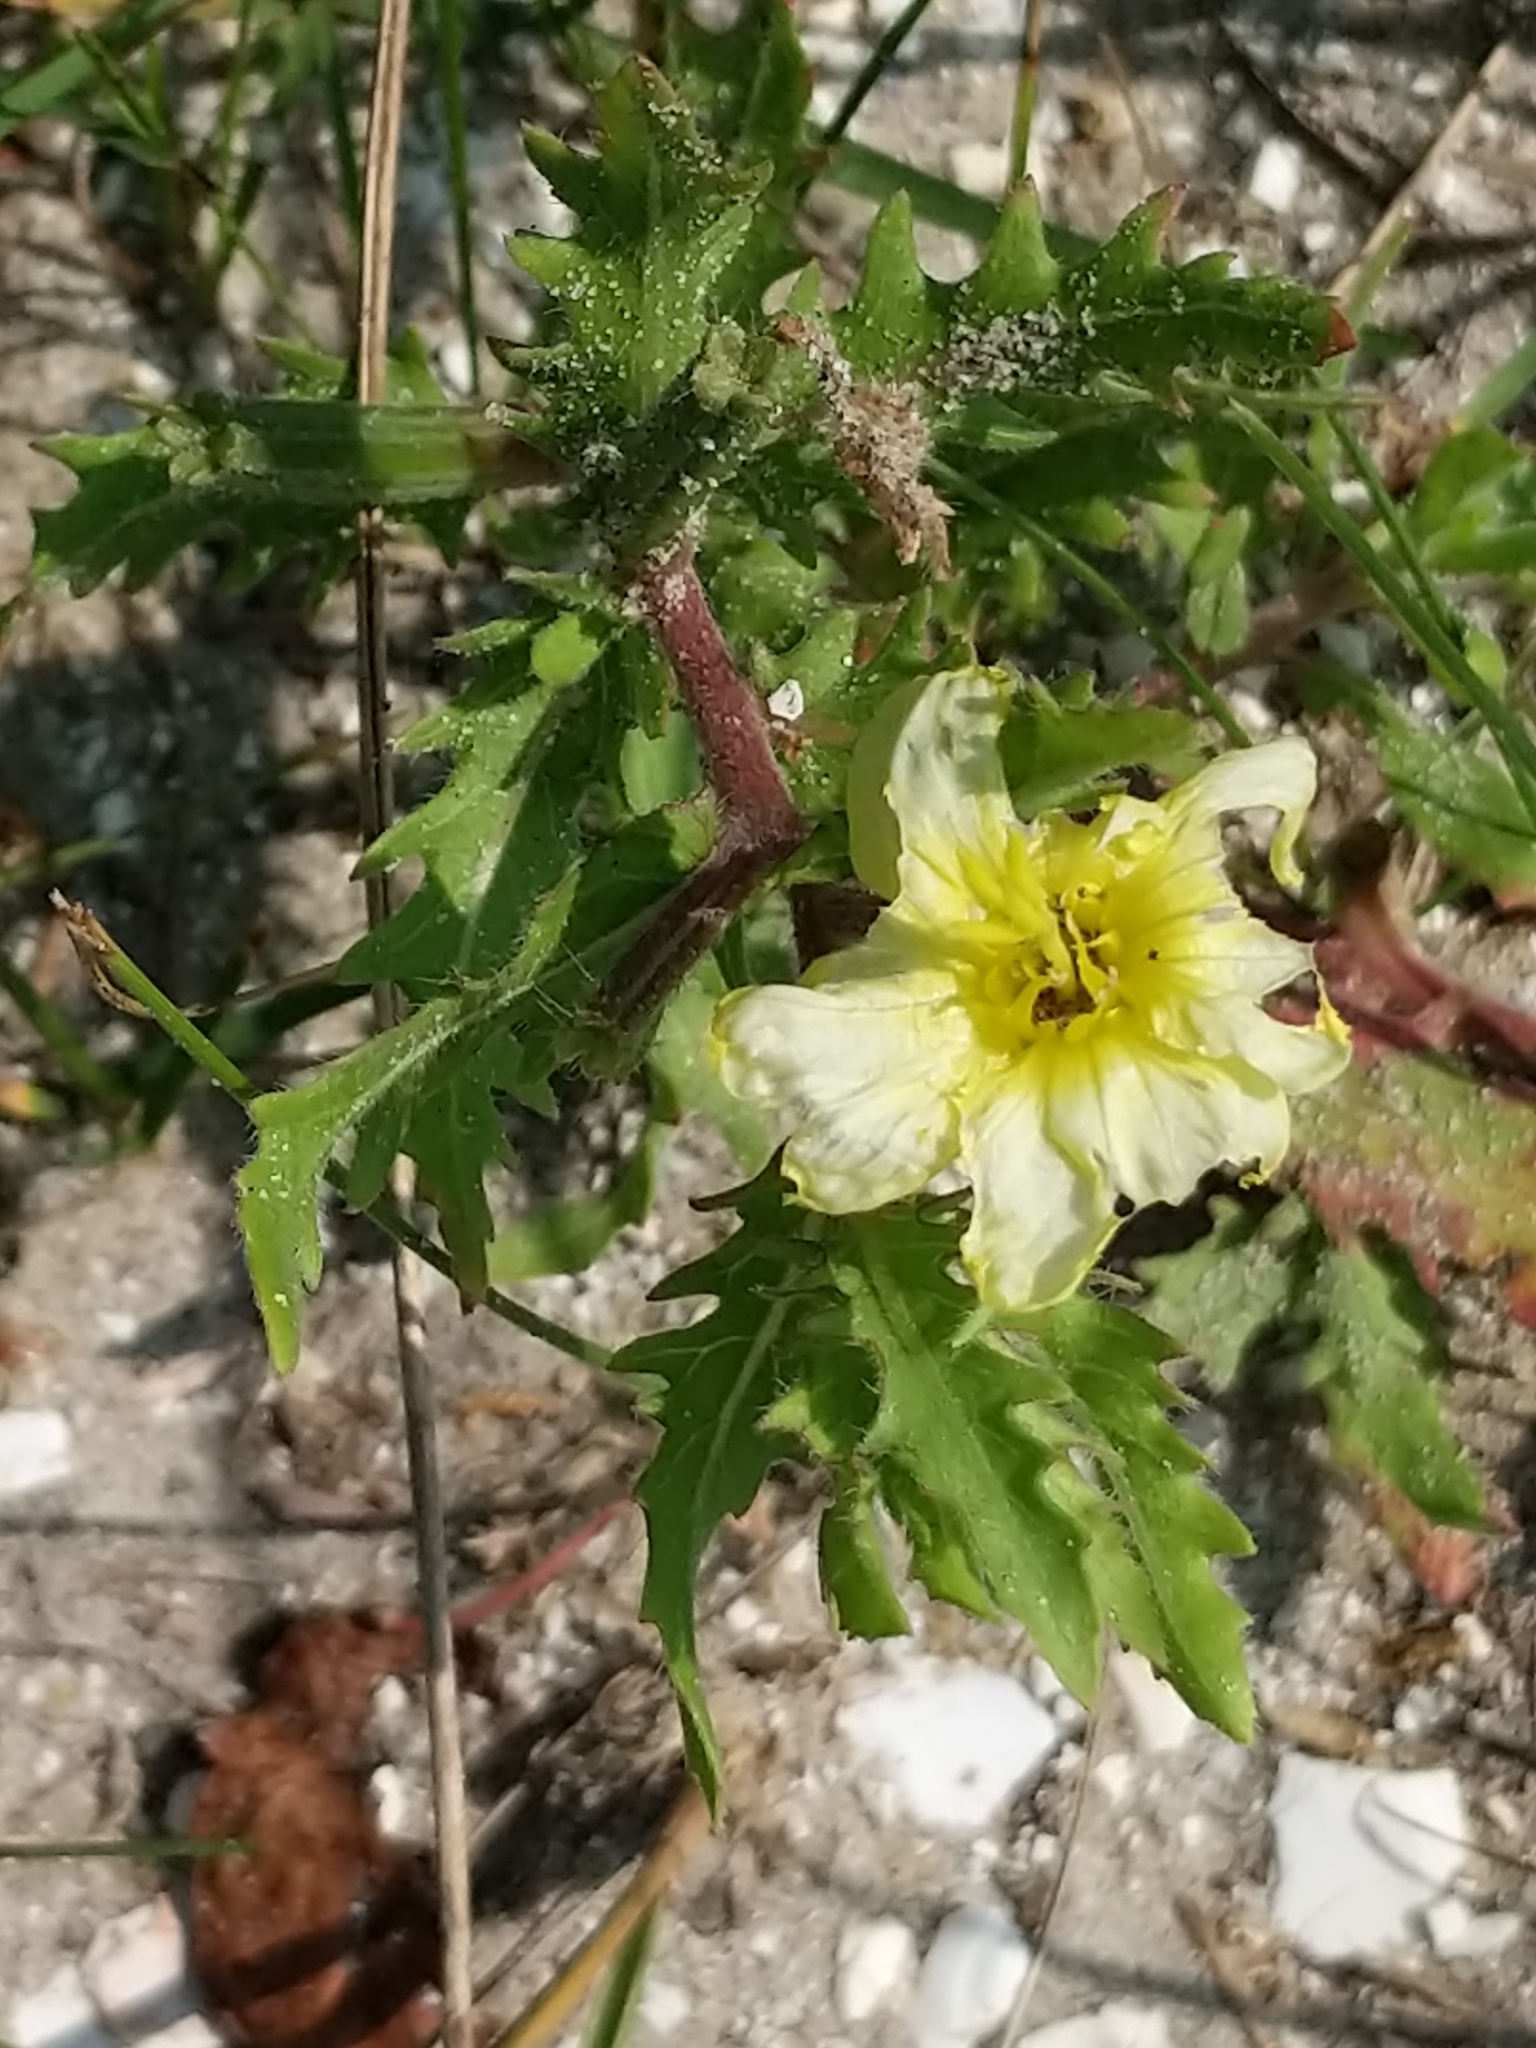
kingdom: Plantae
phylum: Tracheophyta
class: Magnoliopsida
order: Myrtales
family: Onagraceae
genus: Oenothera
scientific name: Oenothera laciniata
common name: Cut-leaved evening-primrose
